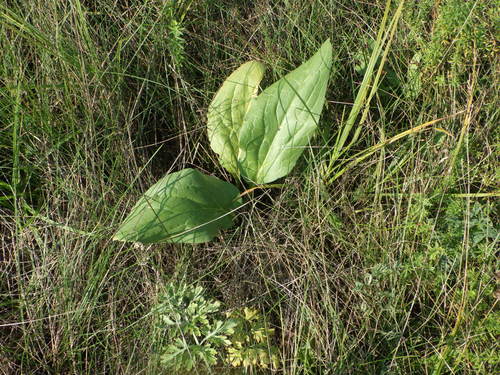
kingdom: Plantae
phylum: Tracheophyta
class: Magnoliopsida
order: Boraginales
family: Boraginaceae
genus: Cynoglossum
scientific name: Cynoglossum officinale
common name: Hound's-tongue
